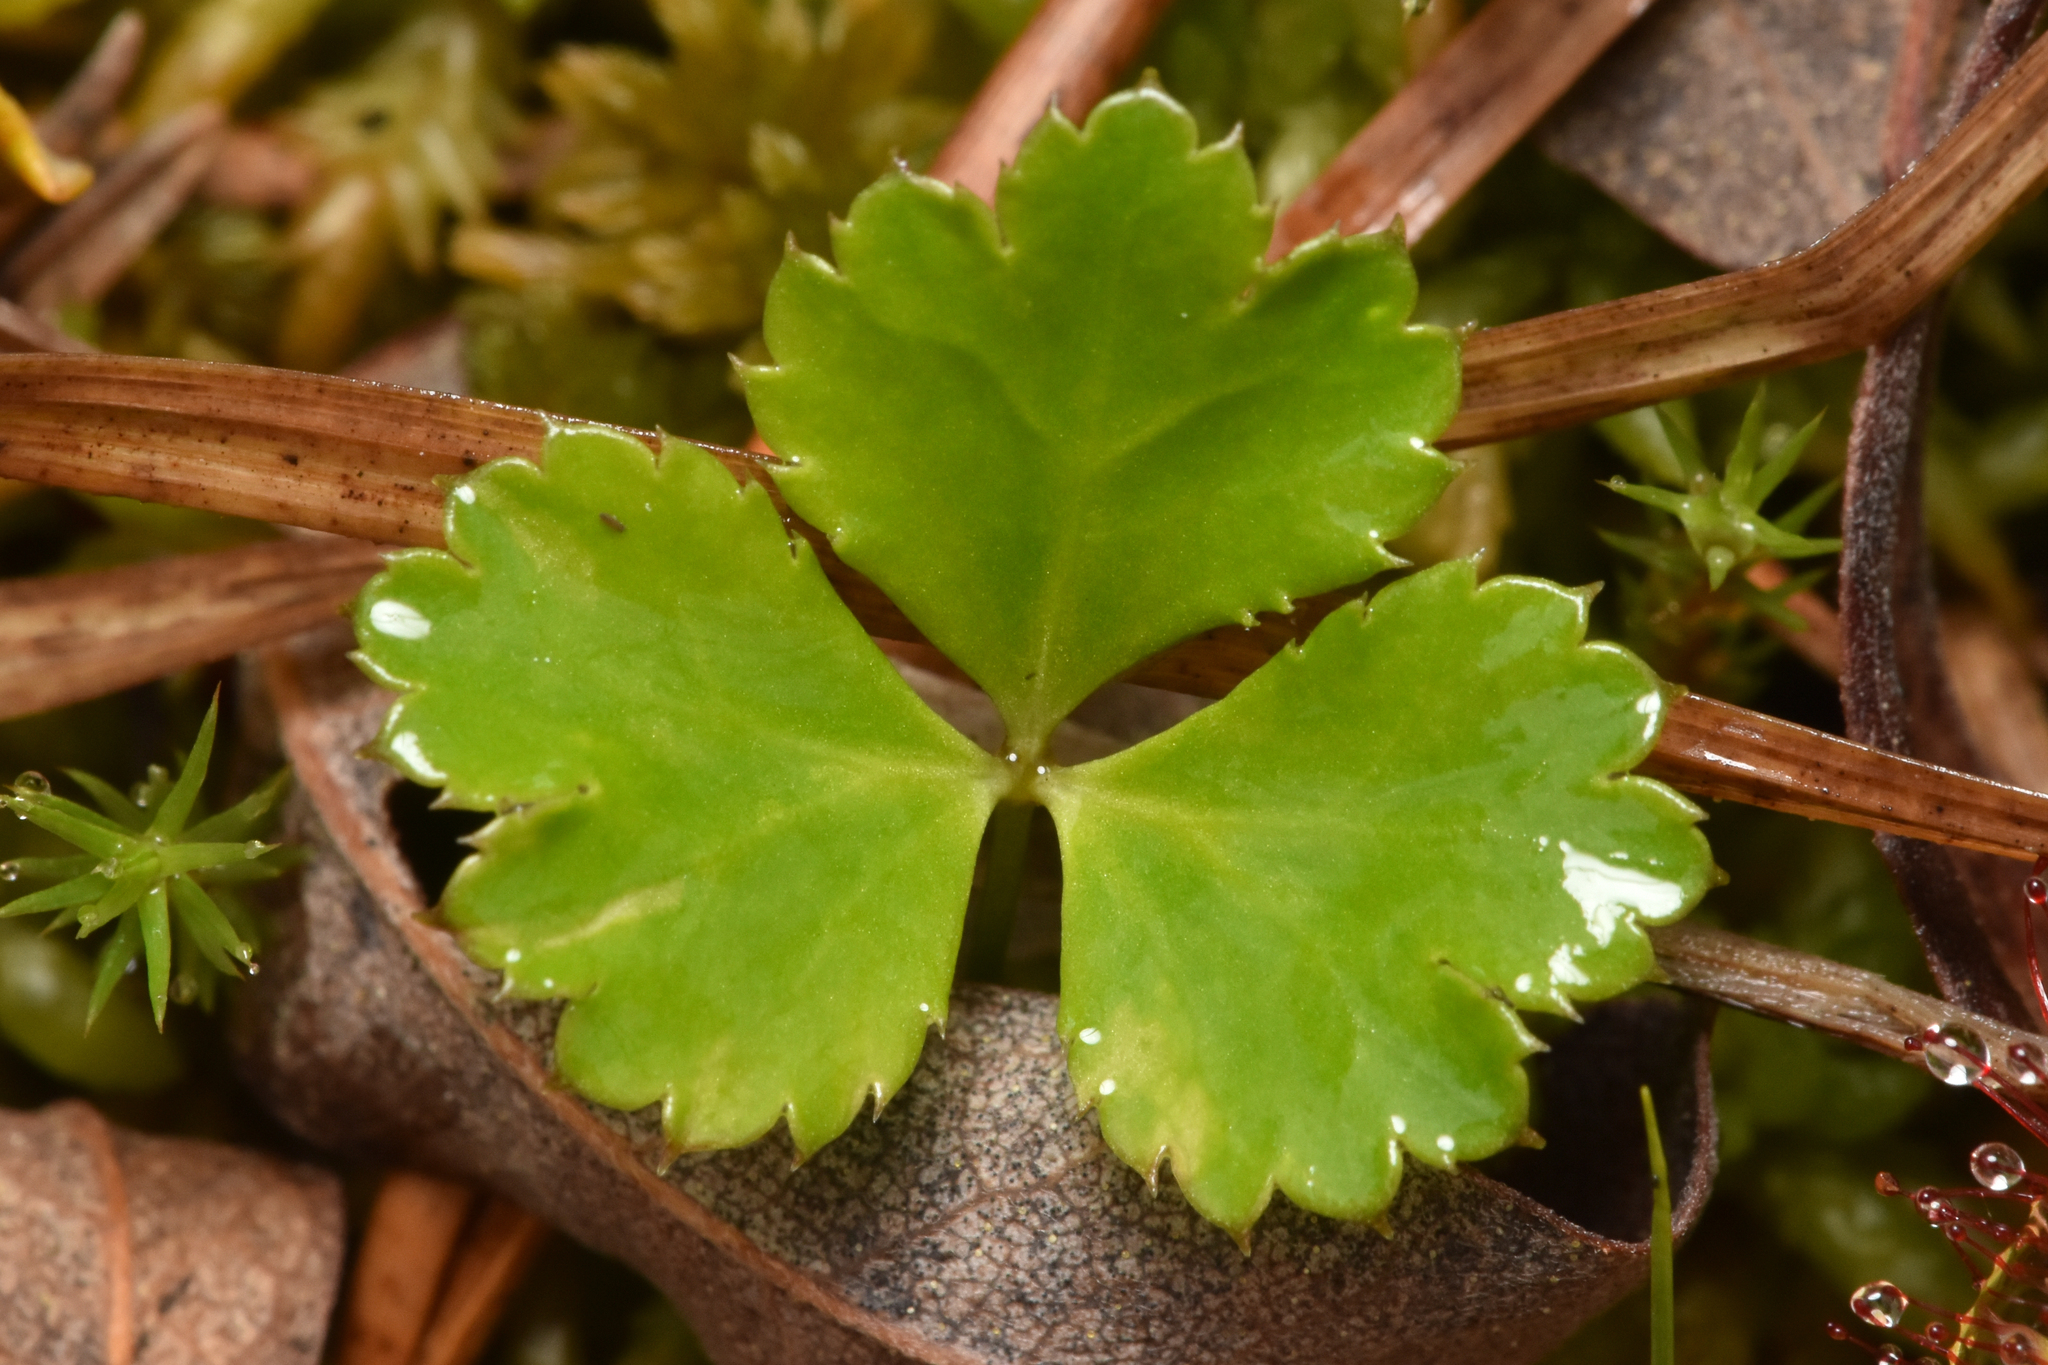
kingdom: Plantae
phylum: Tracheophyta
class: Magnoliopsida
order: Ranunculales
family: Ranunculaceae
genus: Coptis
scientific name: Coptis trifolia
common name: Canker-root
